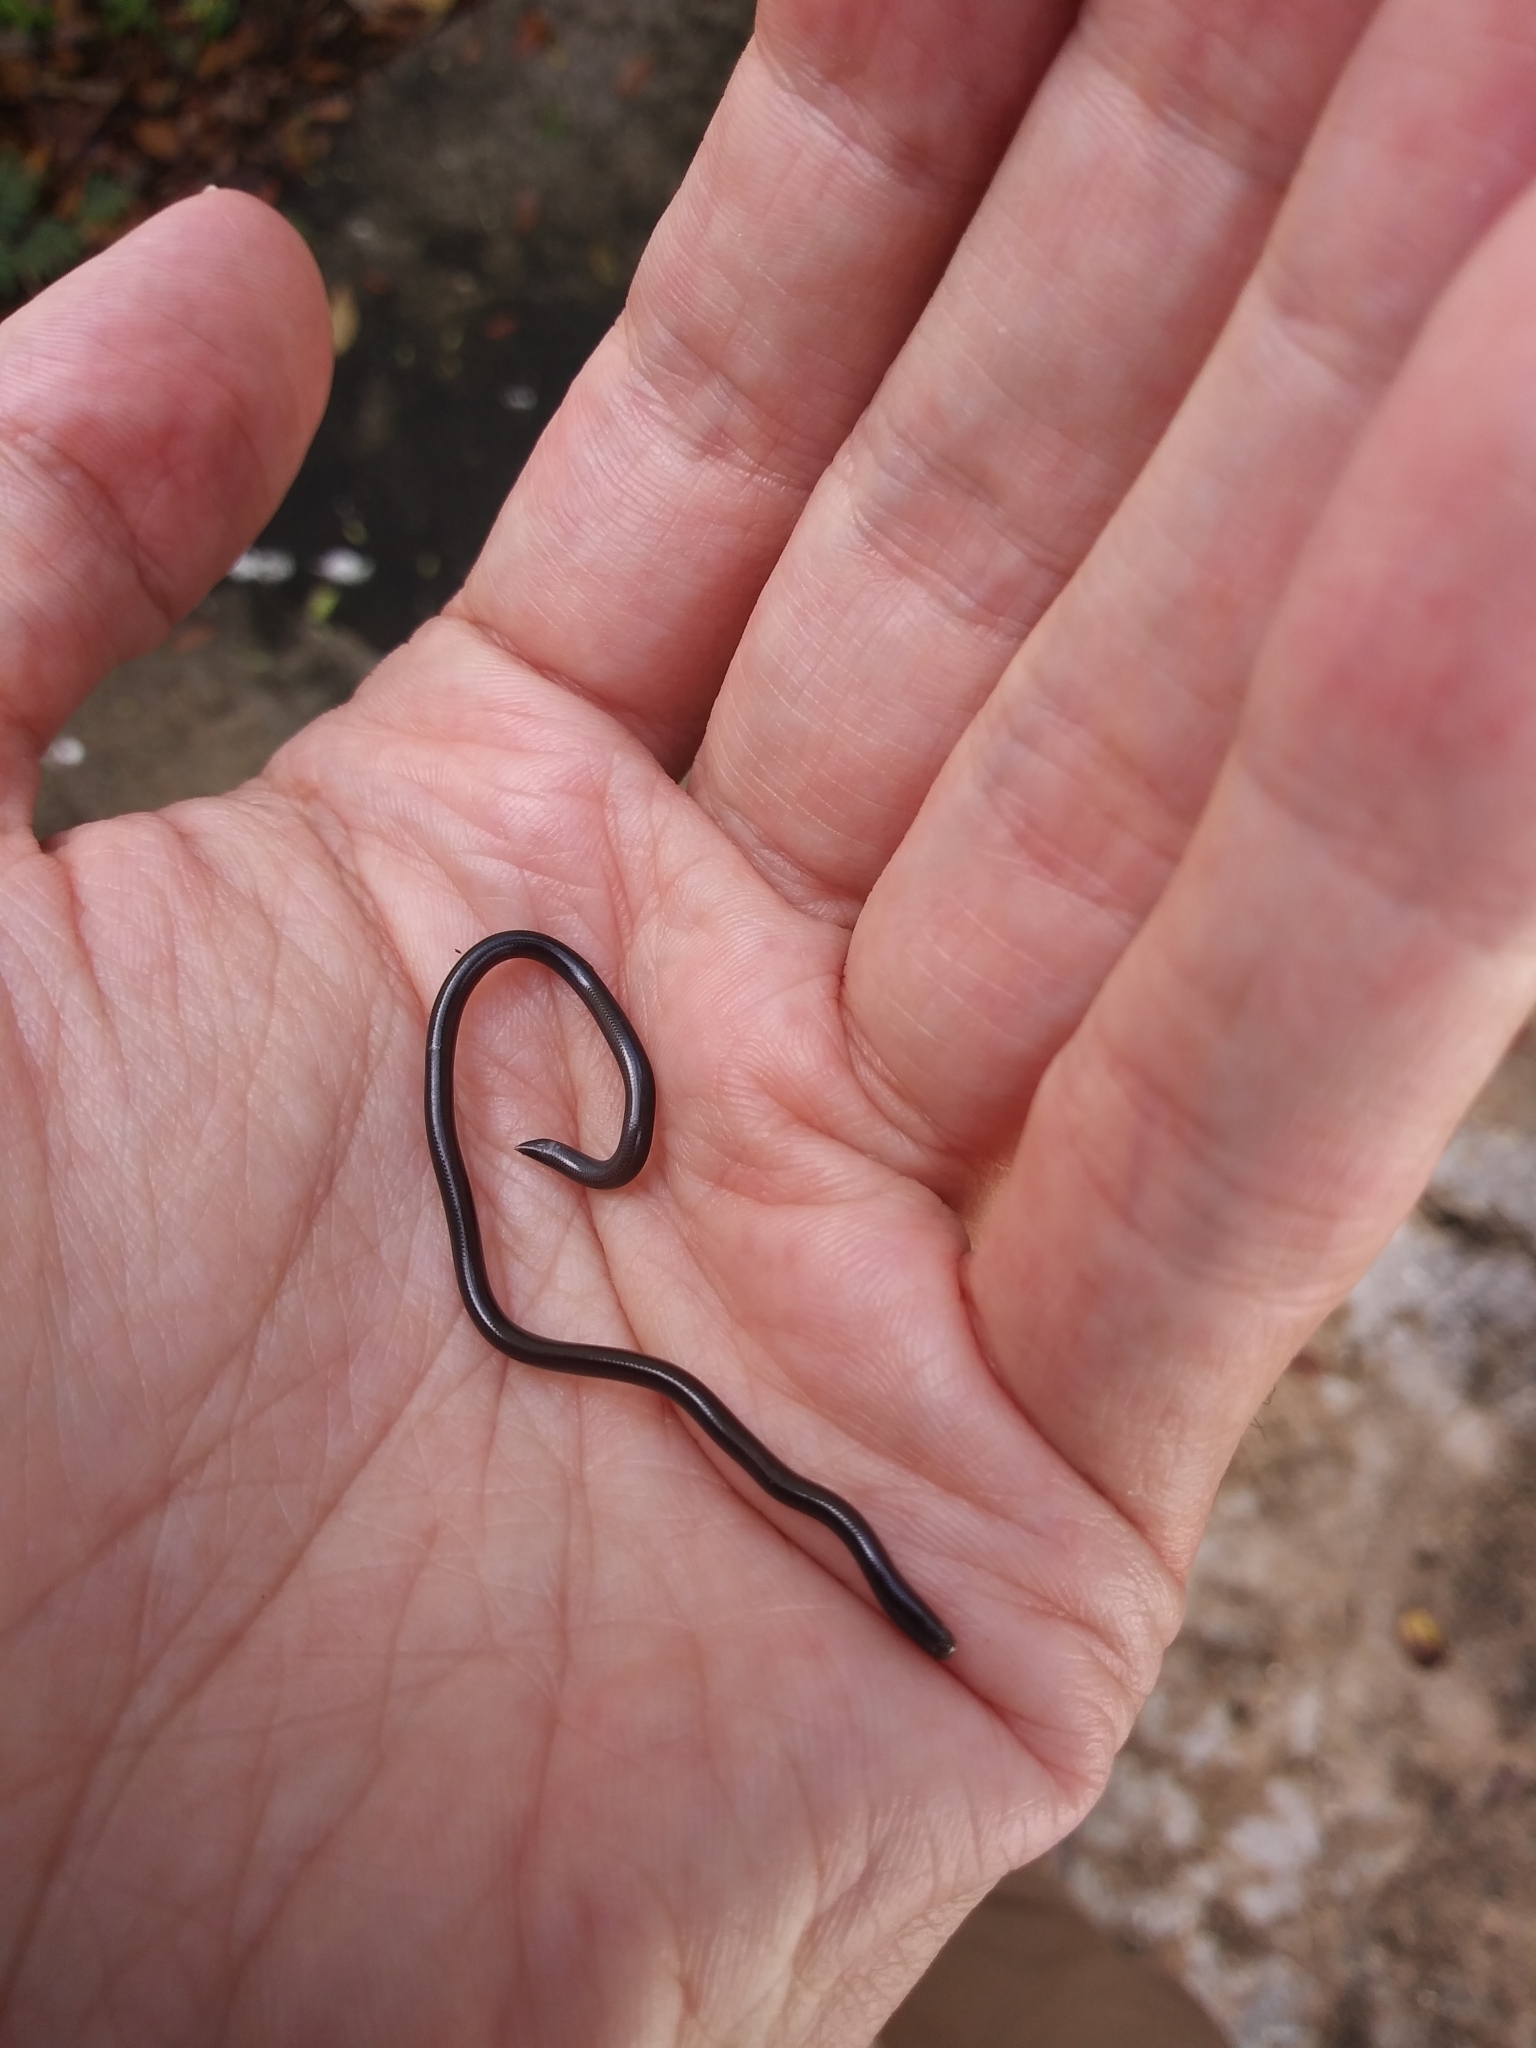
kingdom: Animalia
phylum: Chordata
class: Squamata
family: Typhlopidae
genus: Indotyphlops
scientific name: Indotyphlops braminus
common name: Brahminy blindsnake
